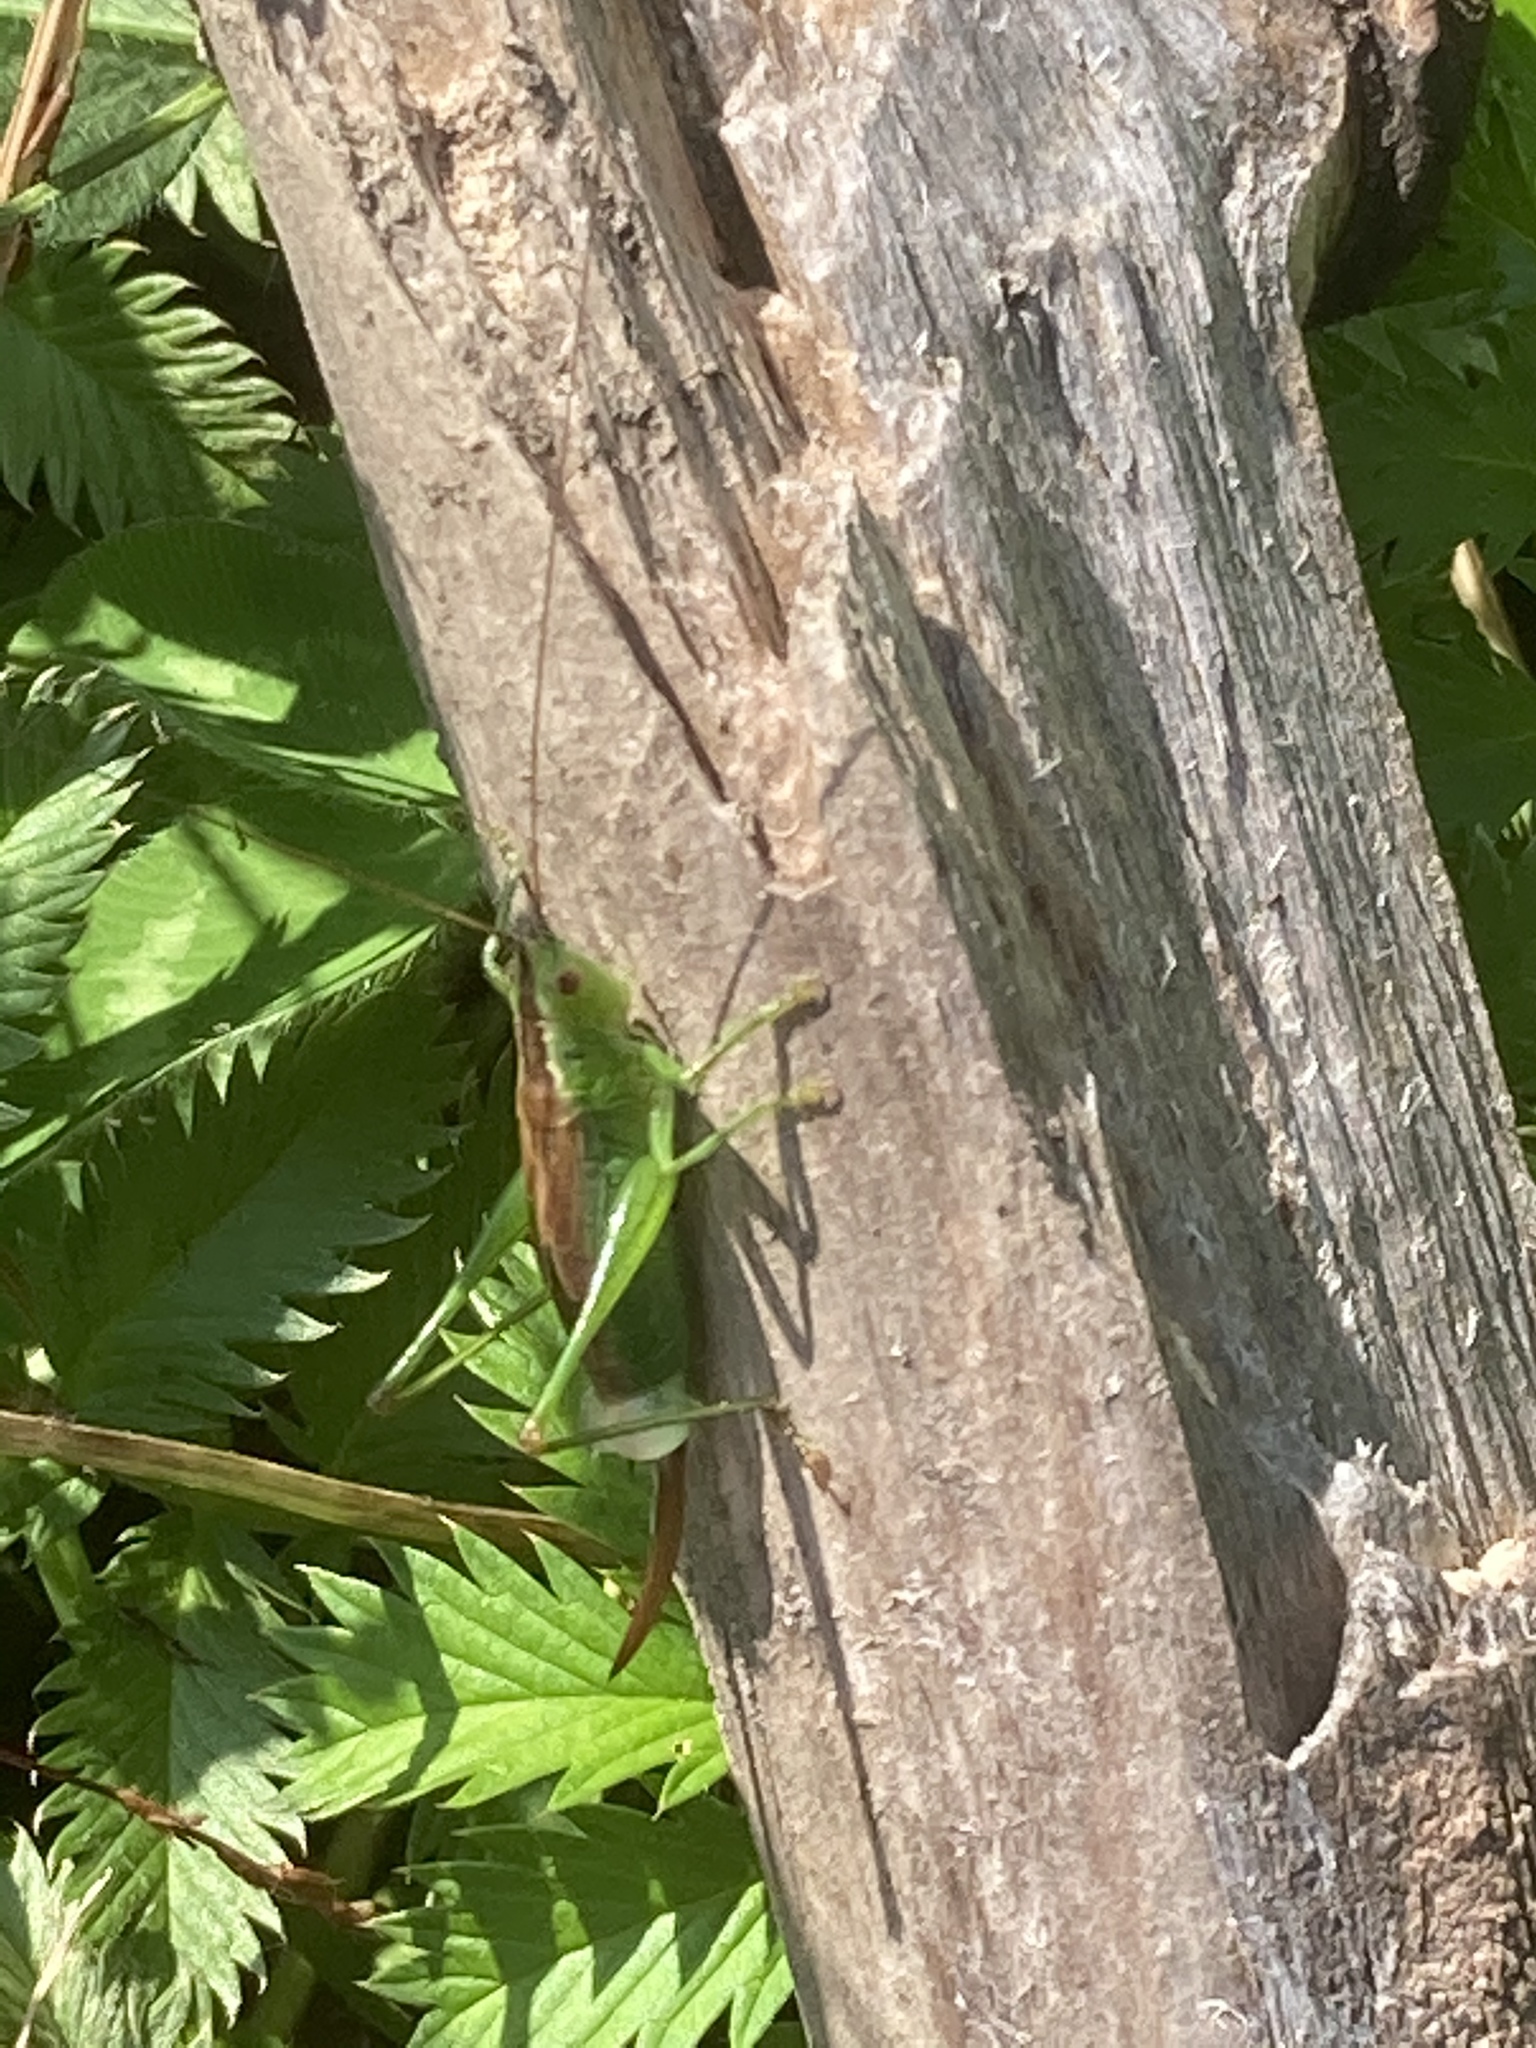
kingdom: Animalia
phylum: Arthropoda
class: Insecta
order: Orthoptera
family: Tettigoniidae
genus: Conocephalus
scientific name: Conocephalus dorsalis
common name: Short-winged conehead
